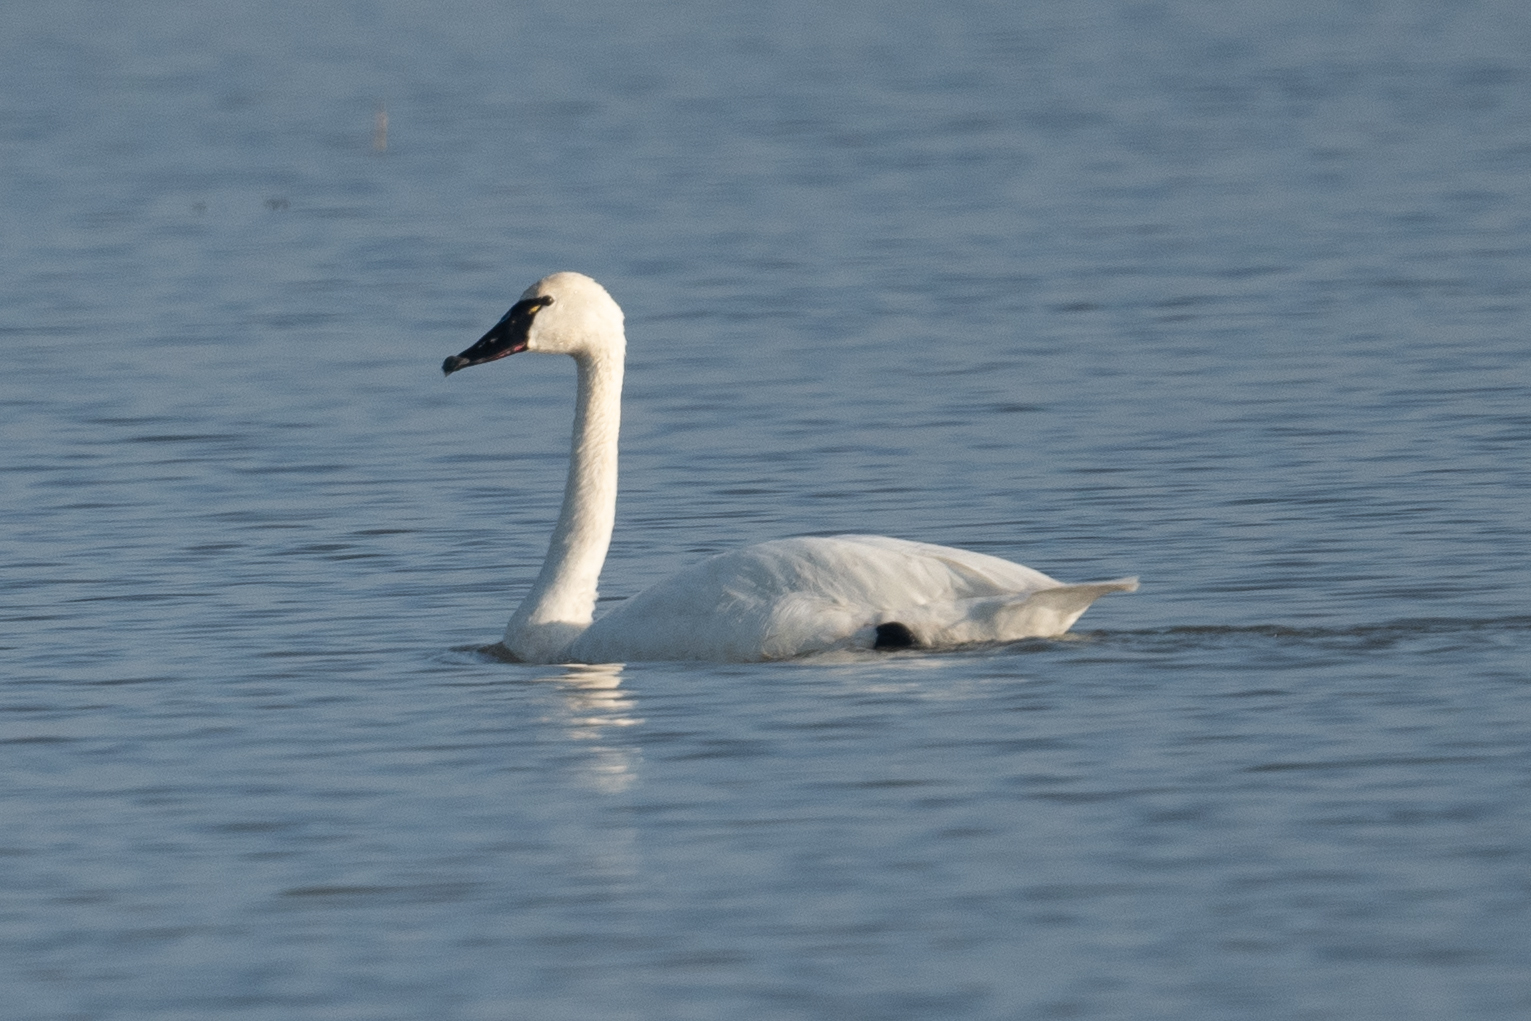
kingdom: Animalia
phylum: Chordata
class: Aves
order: Anseriformes
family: Anatidae
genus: Cygnus
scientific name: Cygnus columbianus
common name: Tundra swan
